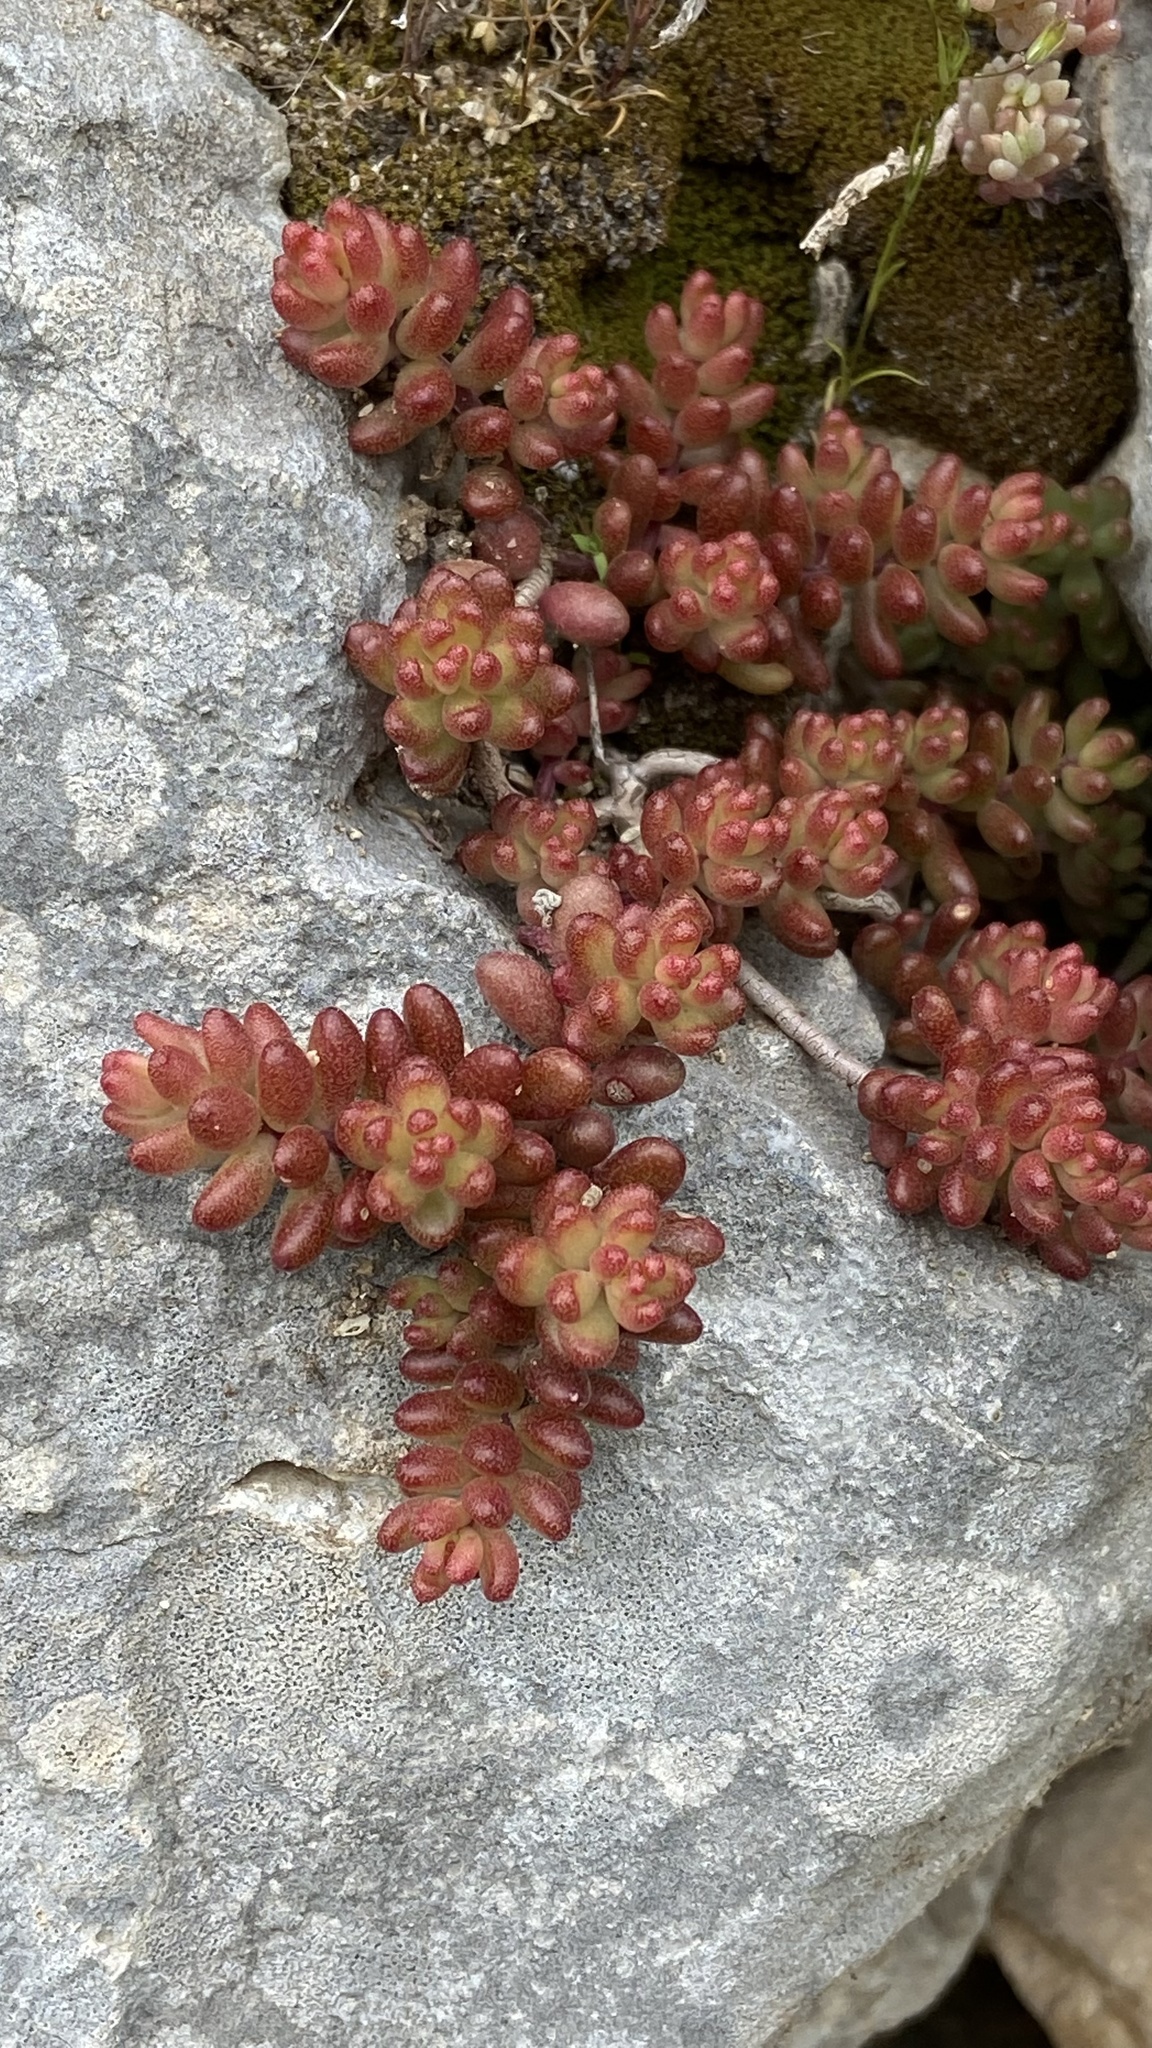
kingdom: Plantae
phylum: Tracheophyta
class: Magnoliopsida
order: Saxifragales
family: Crassulaceae
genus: Sedum
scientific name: Sedum album
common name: White stonecrop
